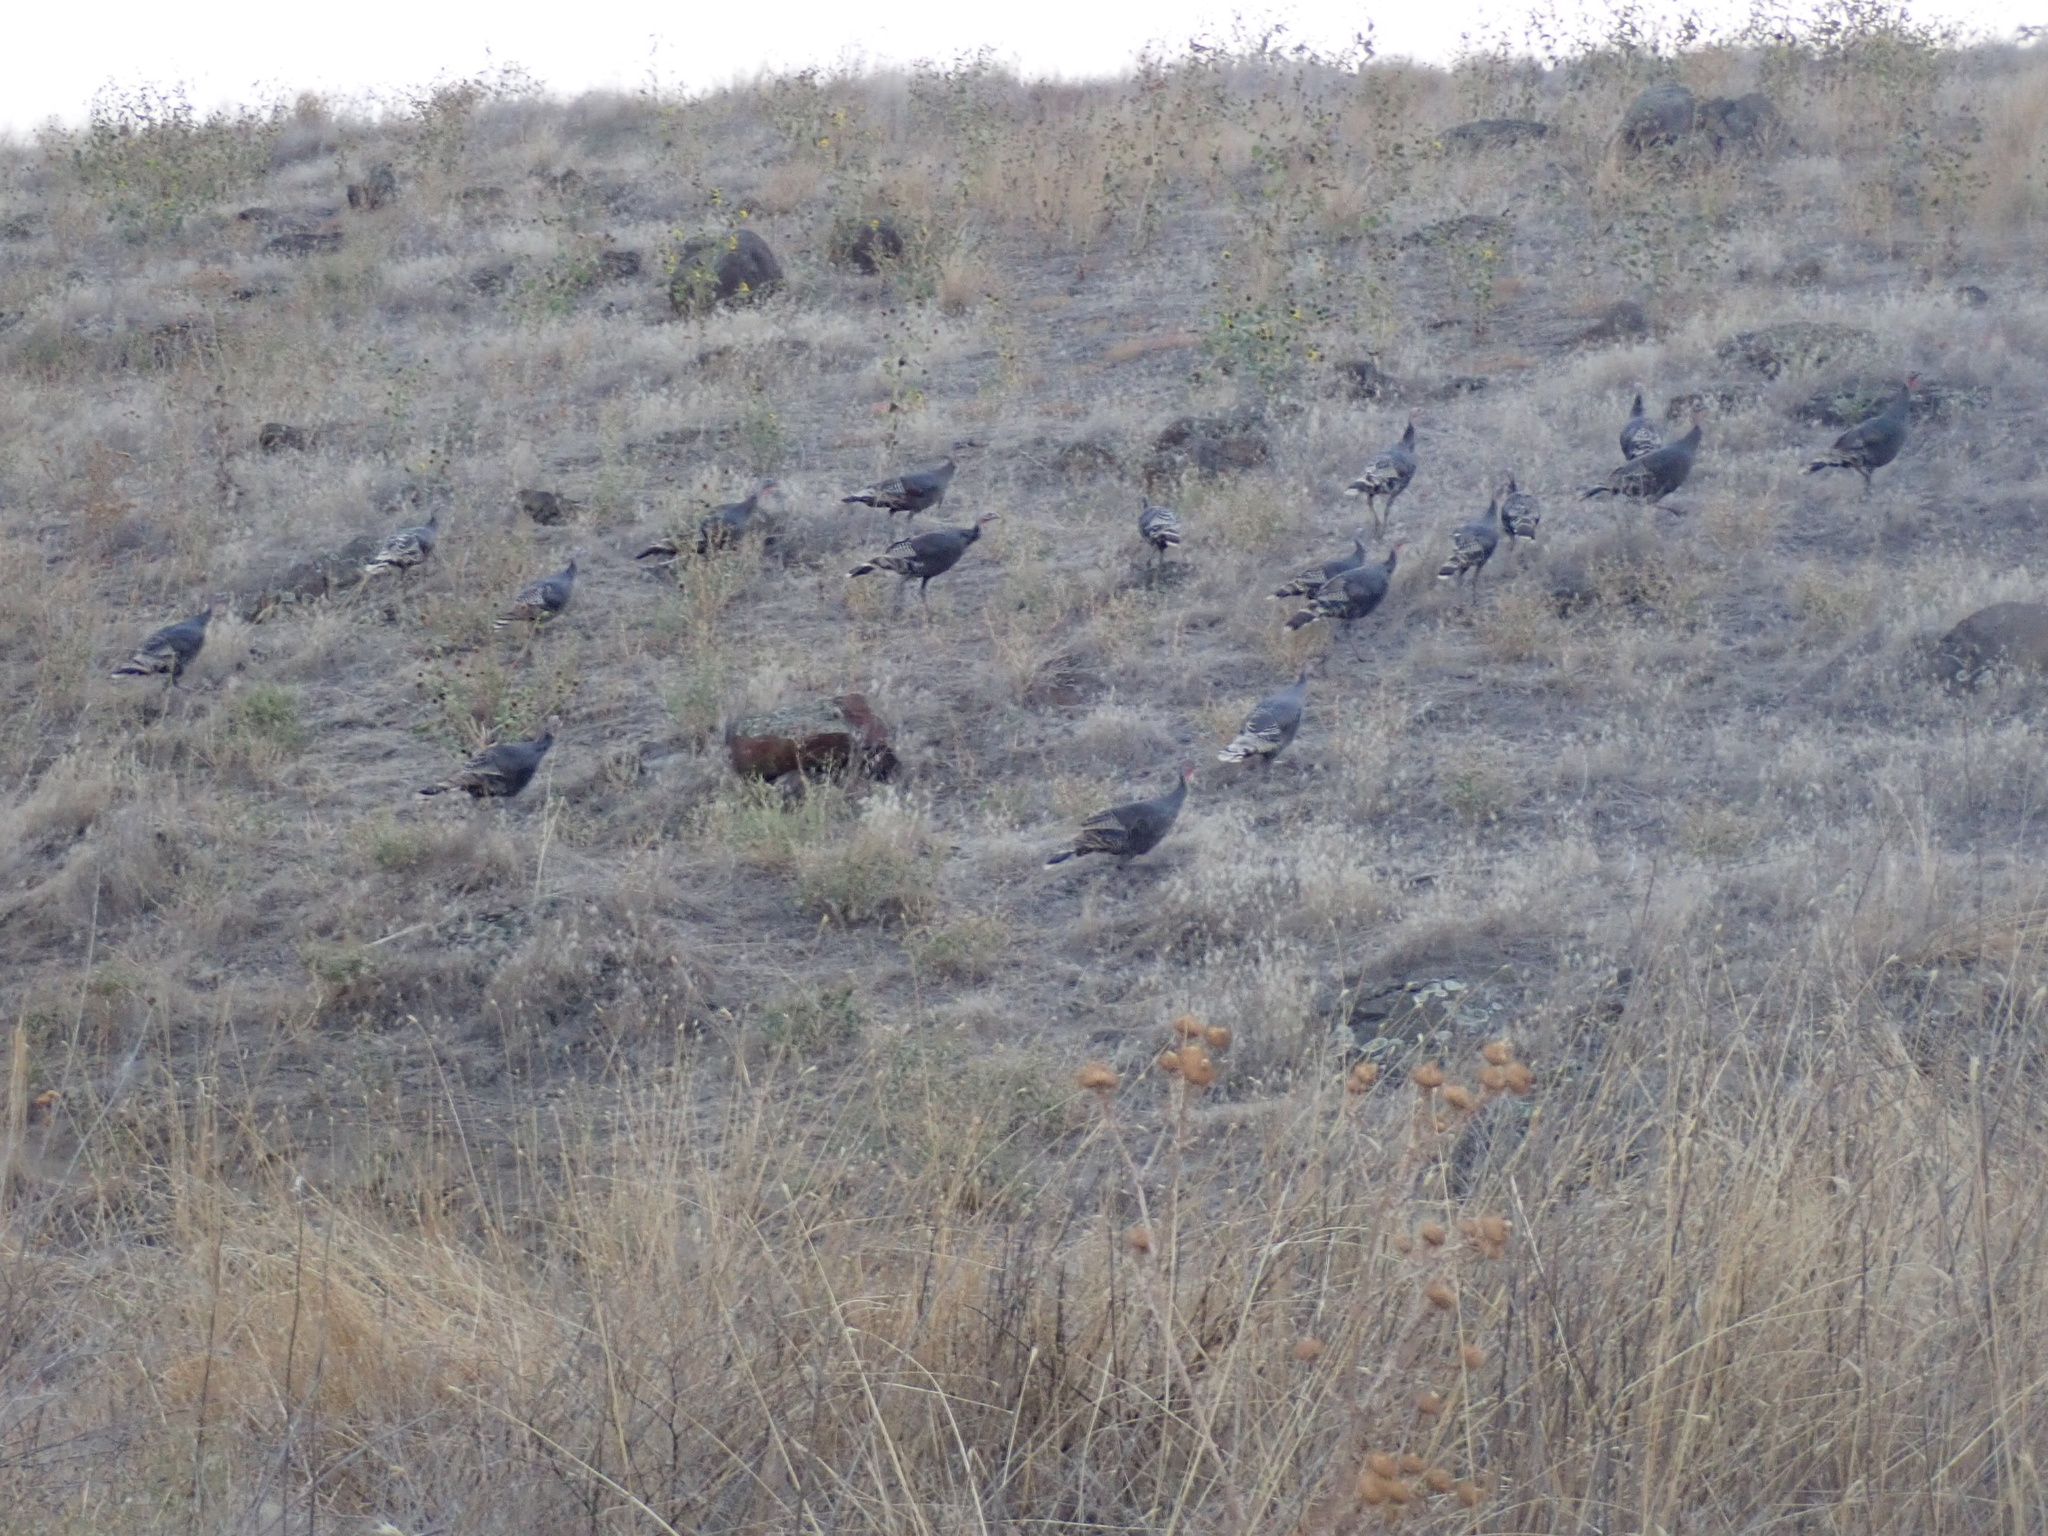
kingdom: Animalia
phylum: Chordata
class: Aves
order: Galliformes
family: Phasianidae
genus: Meleagris
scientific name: Meleagris gallopavo
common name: Wild turkey
